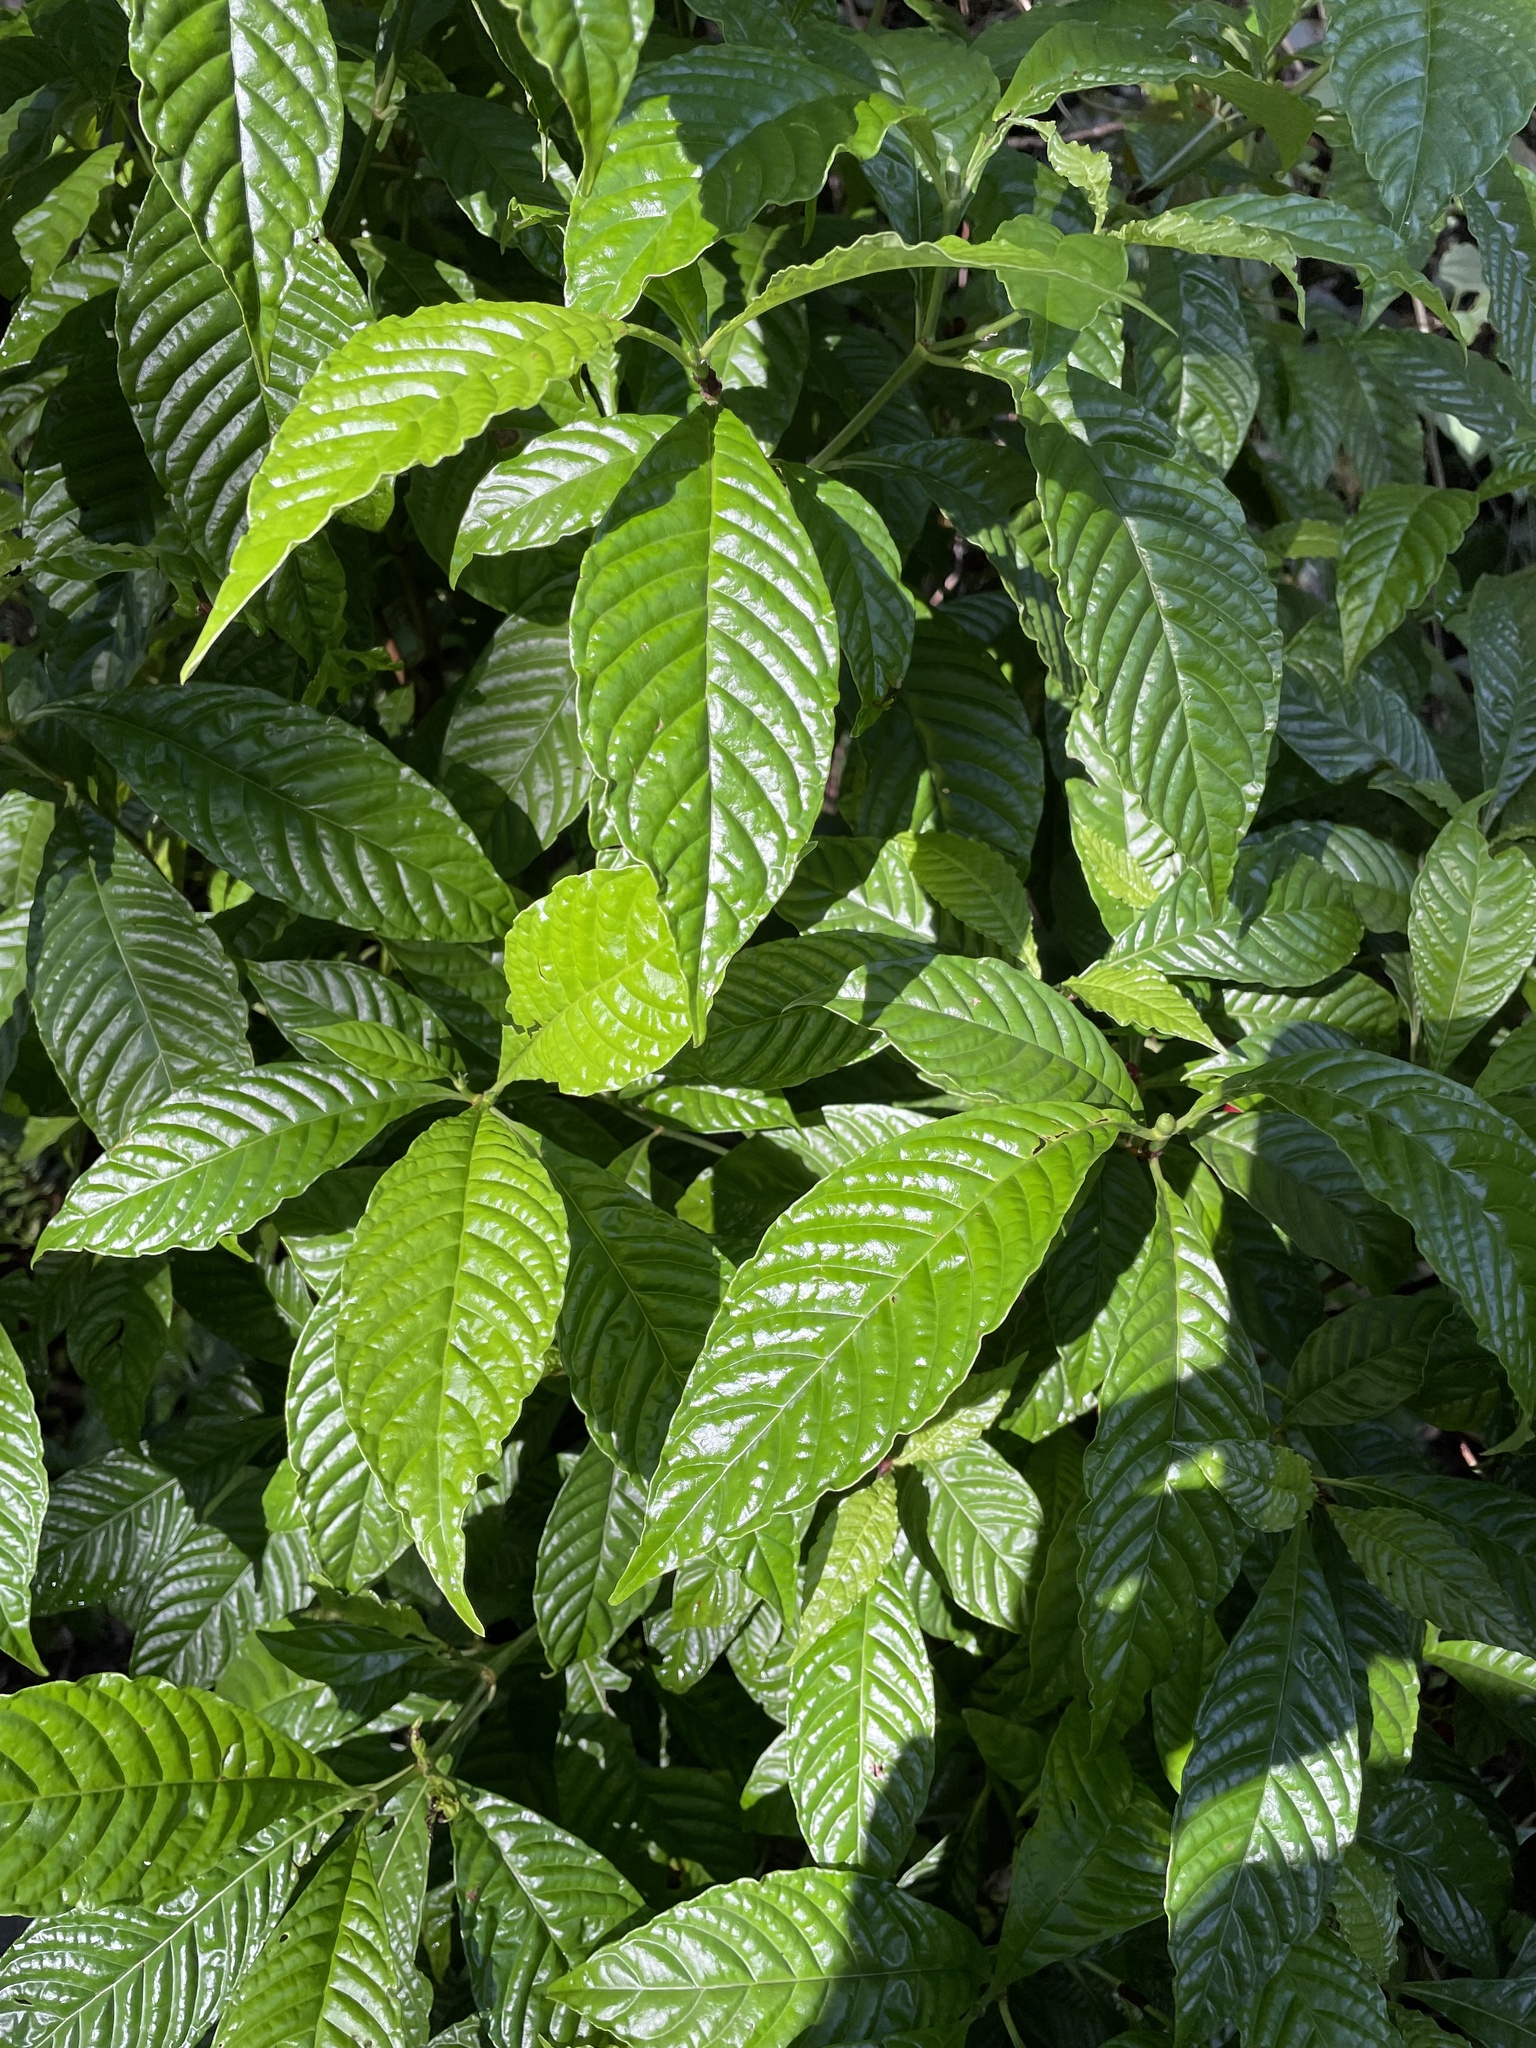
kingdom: Plantae
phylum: Tracheophyta
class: Magnoliopsida
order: Gentianales
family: Rubiaceae
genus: Psychotria
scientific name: Psychotria nervosa
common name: Bastard cankerberry
